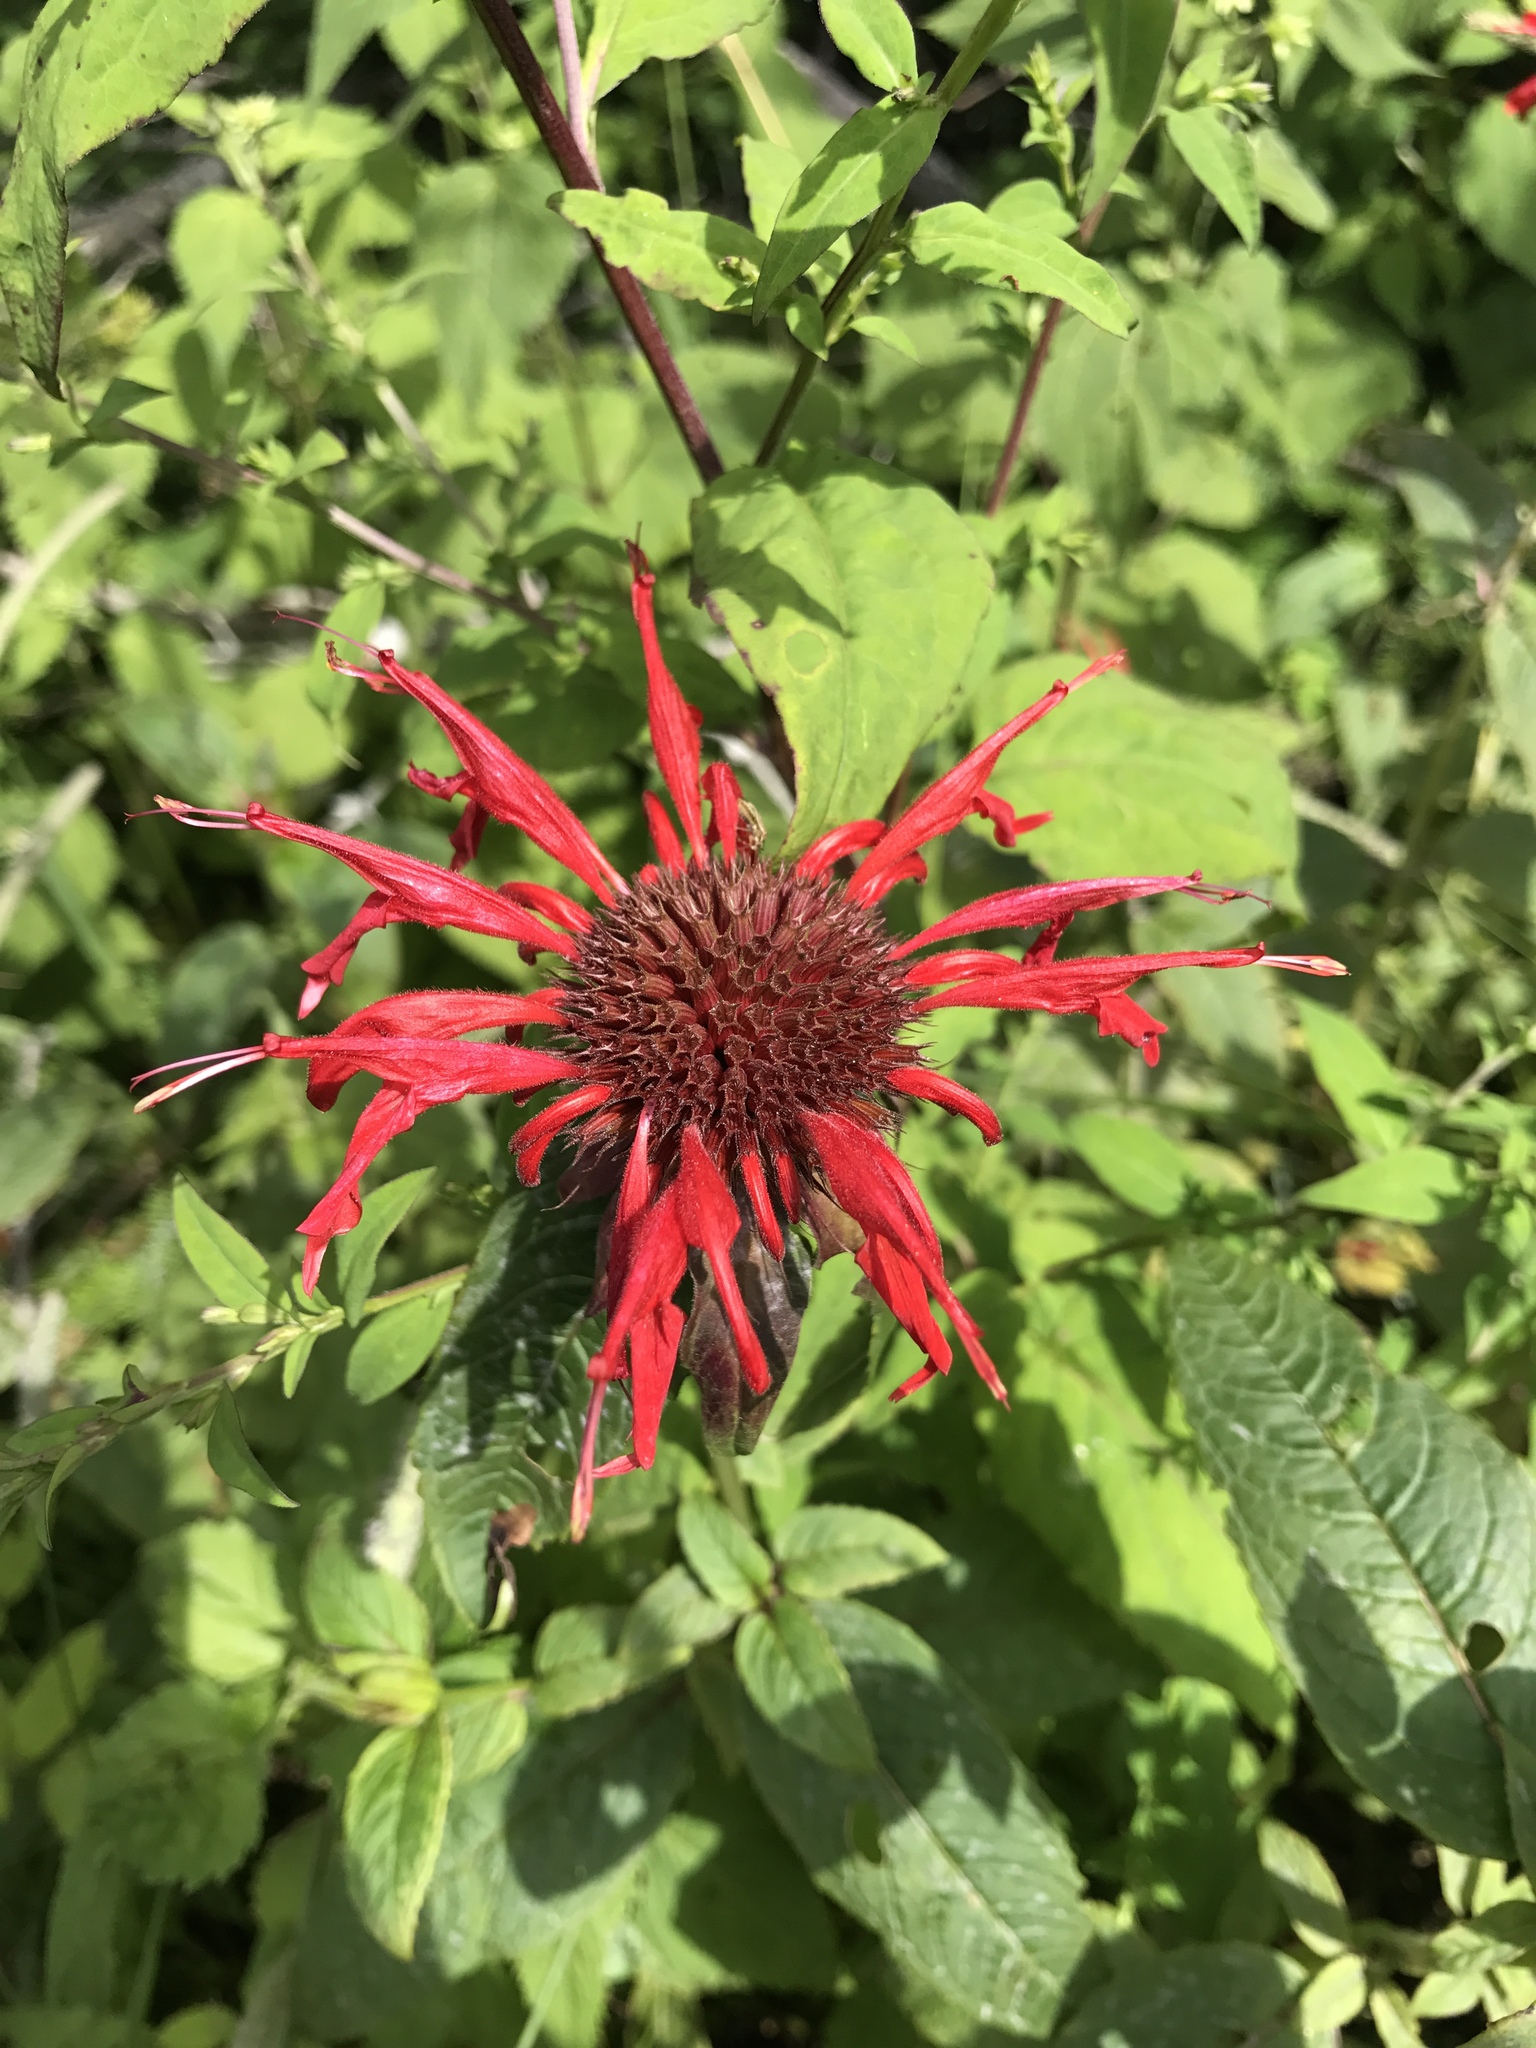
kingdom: Plantae
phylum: Tracheophyta
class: Magnoliopsida
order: Lamiales
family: Lamiaceae
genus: Monarda
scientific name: Monarda didyma
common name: Beebalm
